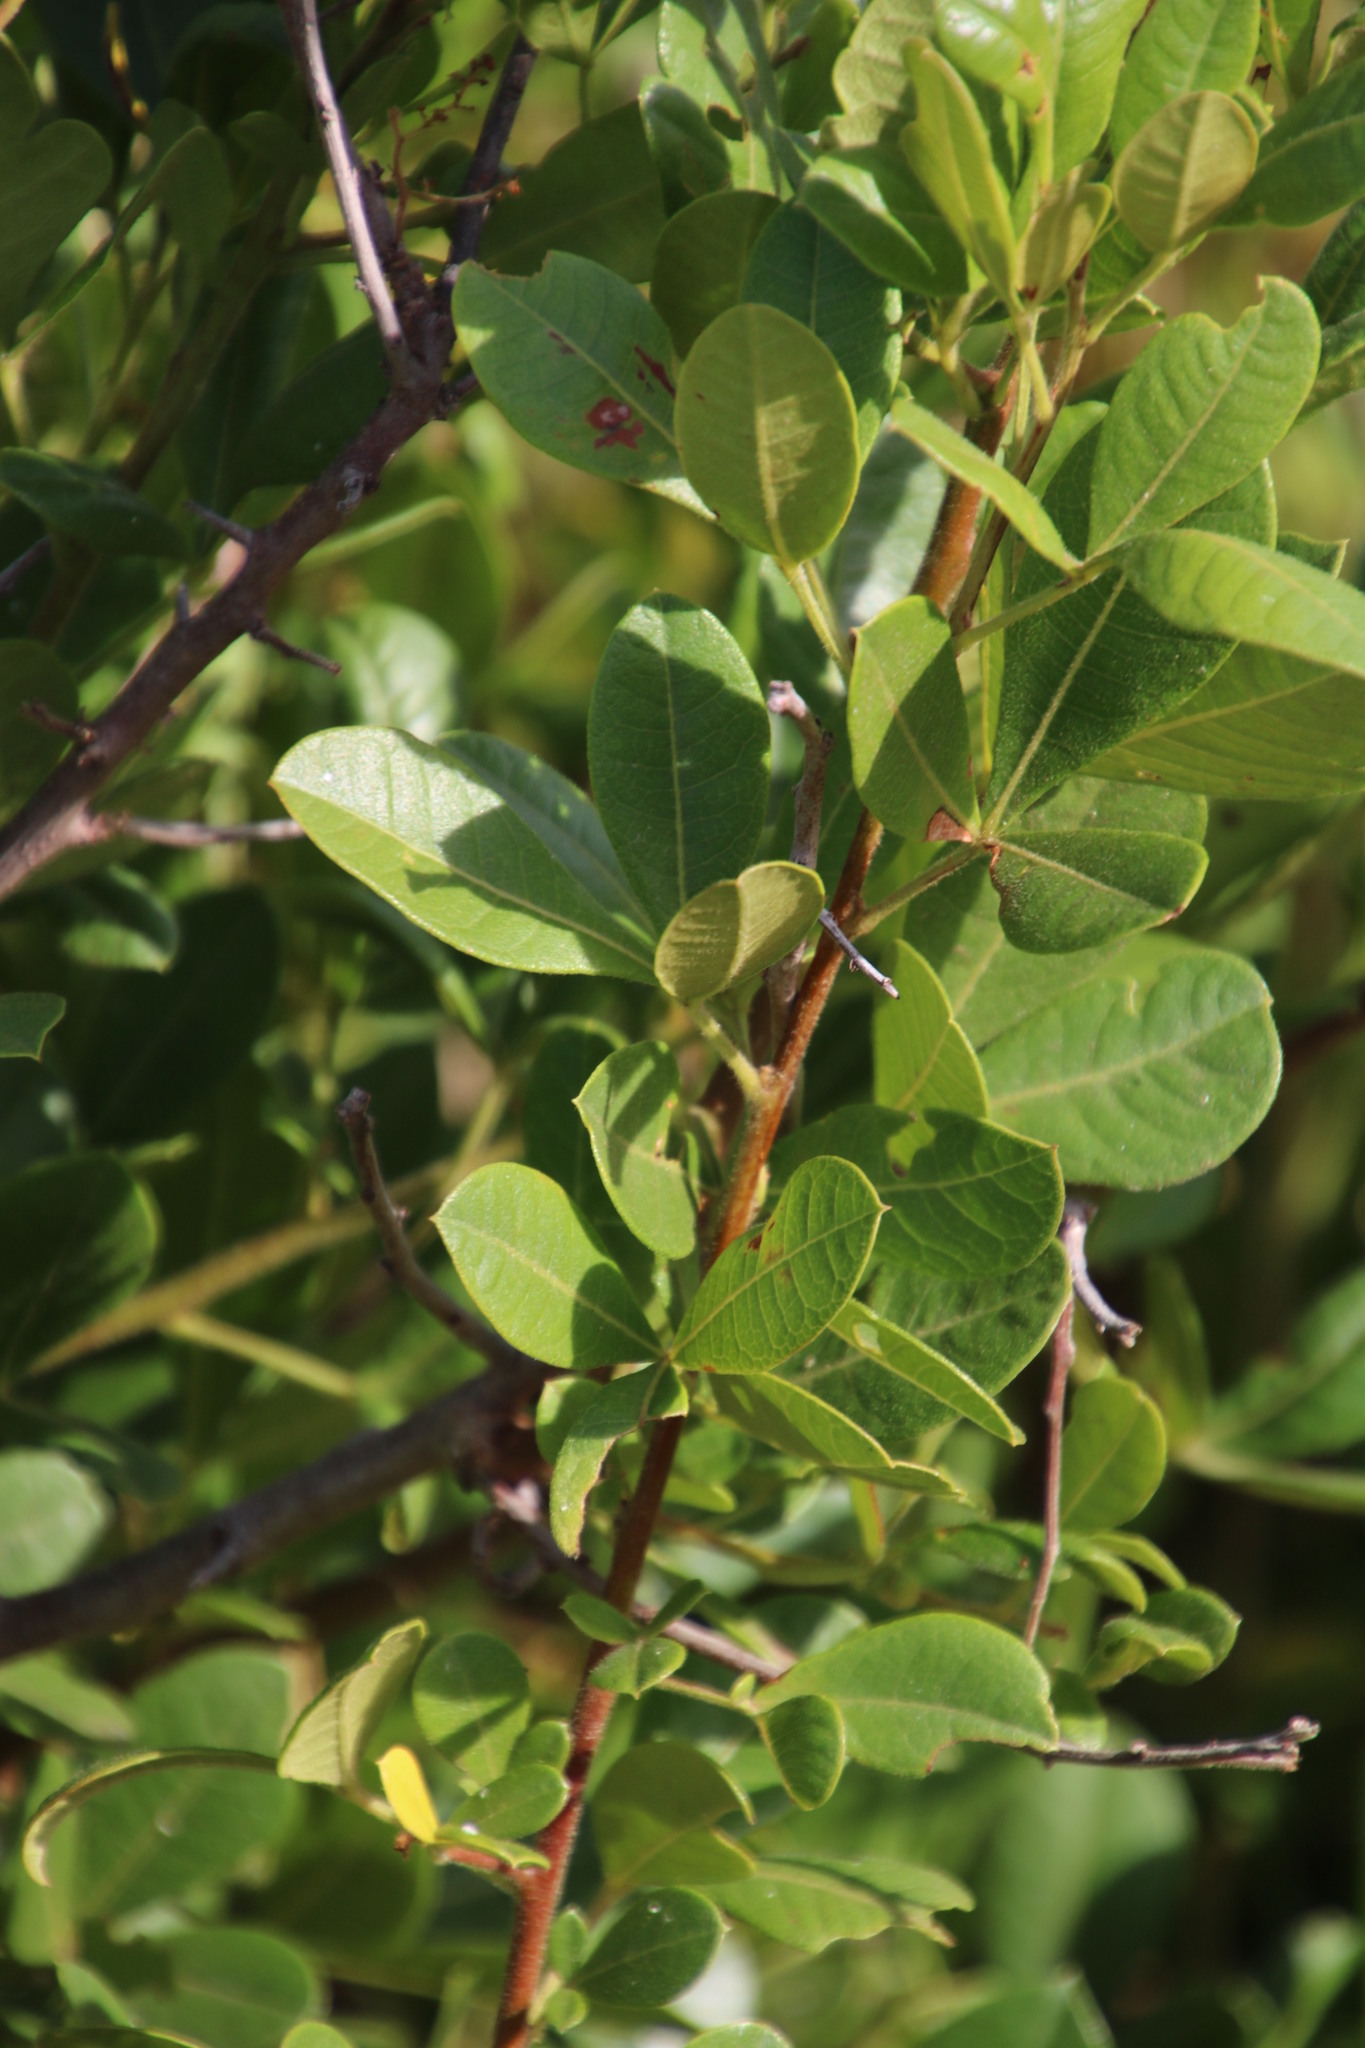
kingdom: Plantae
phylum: Tracheophyta
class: Magnoliopsida
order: Sapindales
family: Anacardiaceae
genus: Searsia
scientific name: Searsia laevigata
